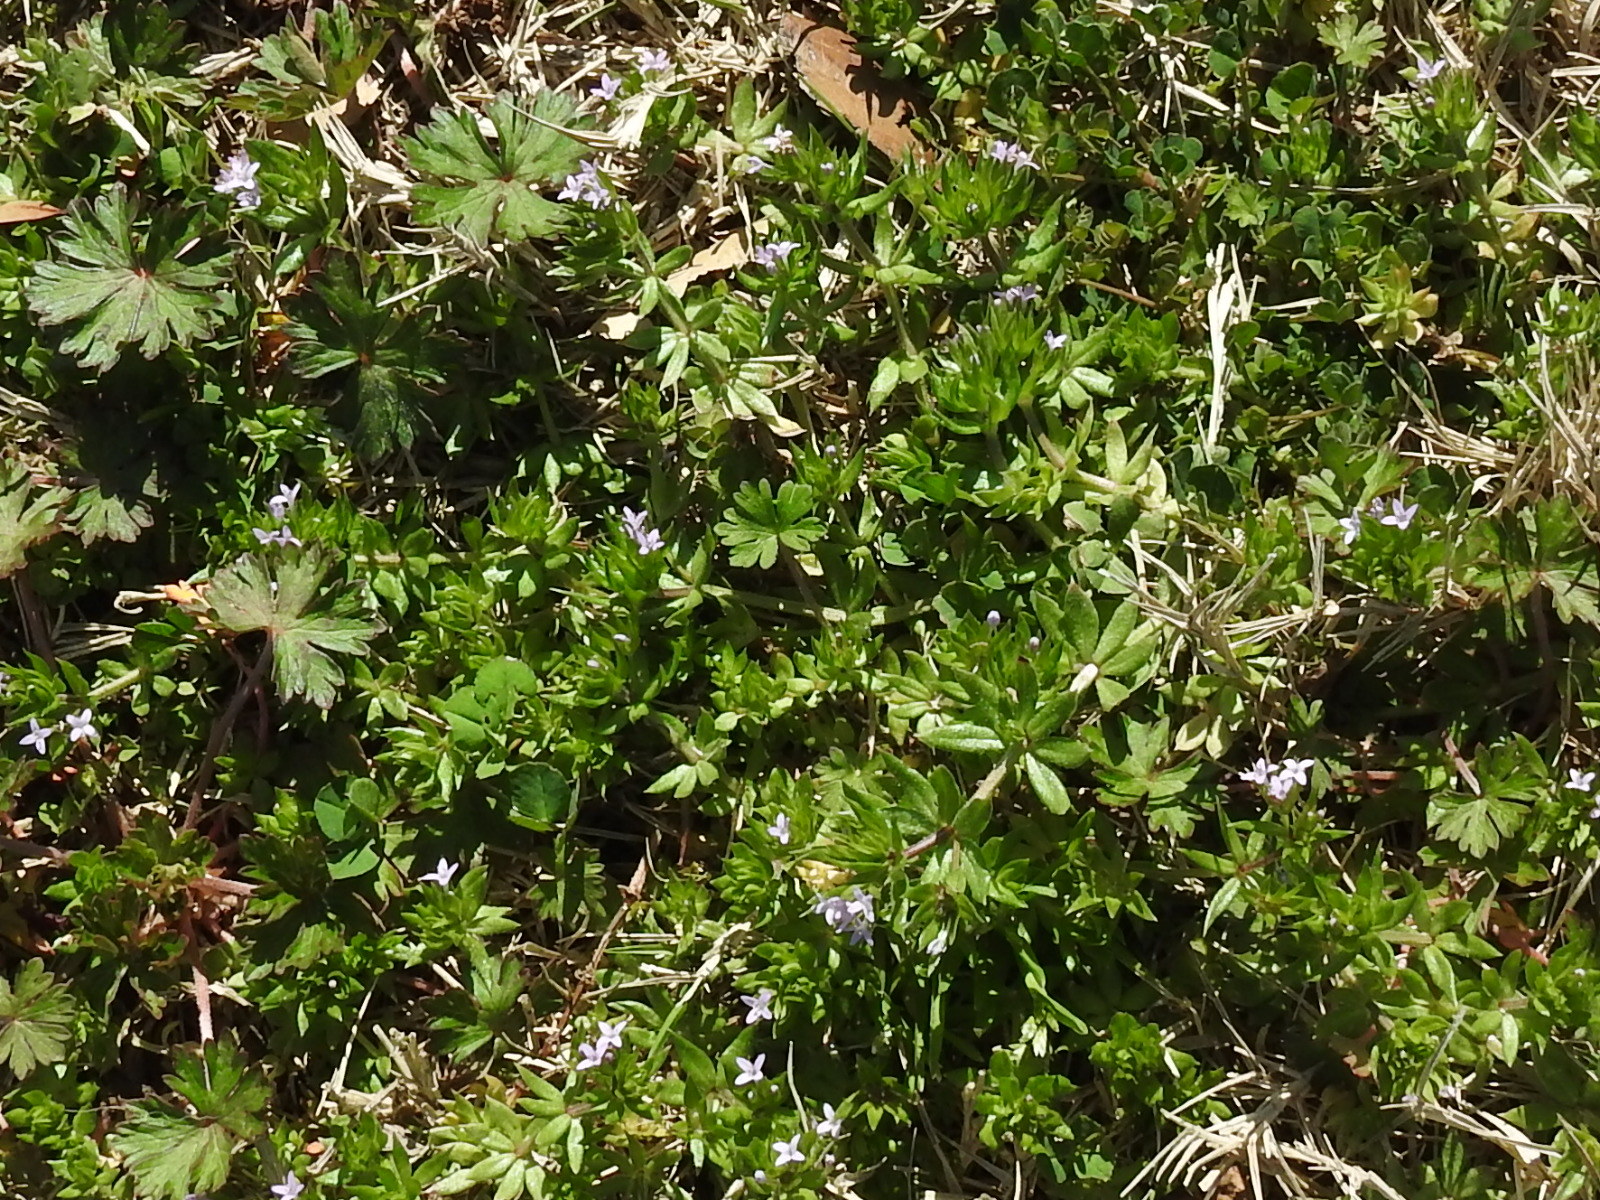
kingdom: Plantae
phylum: Tracheophyta
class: Magnoliopsida
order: Gentianales
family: Rubiaceae
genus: Sherardia
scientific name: Sherardia arvensis
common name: Field madder
